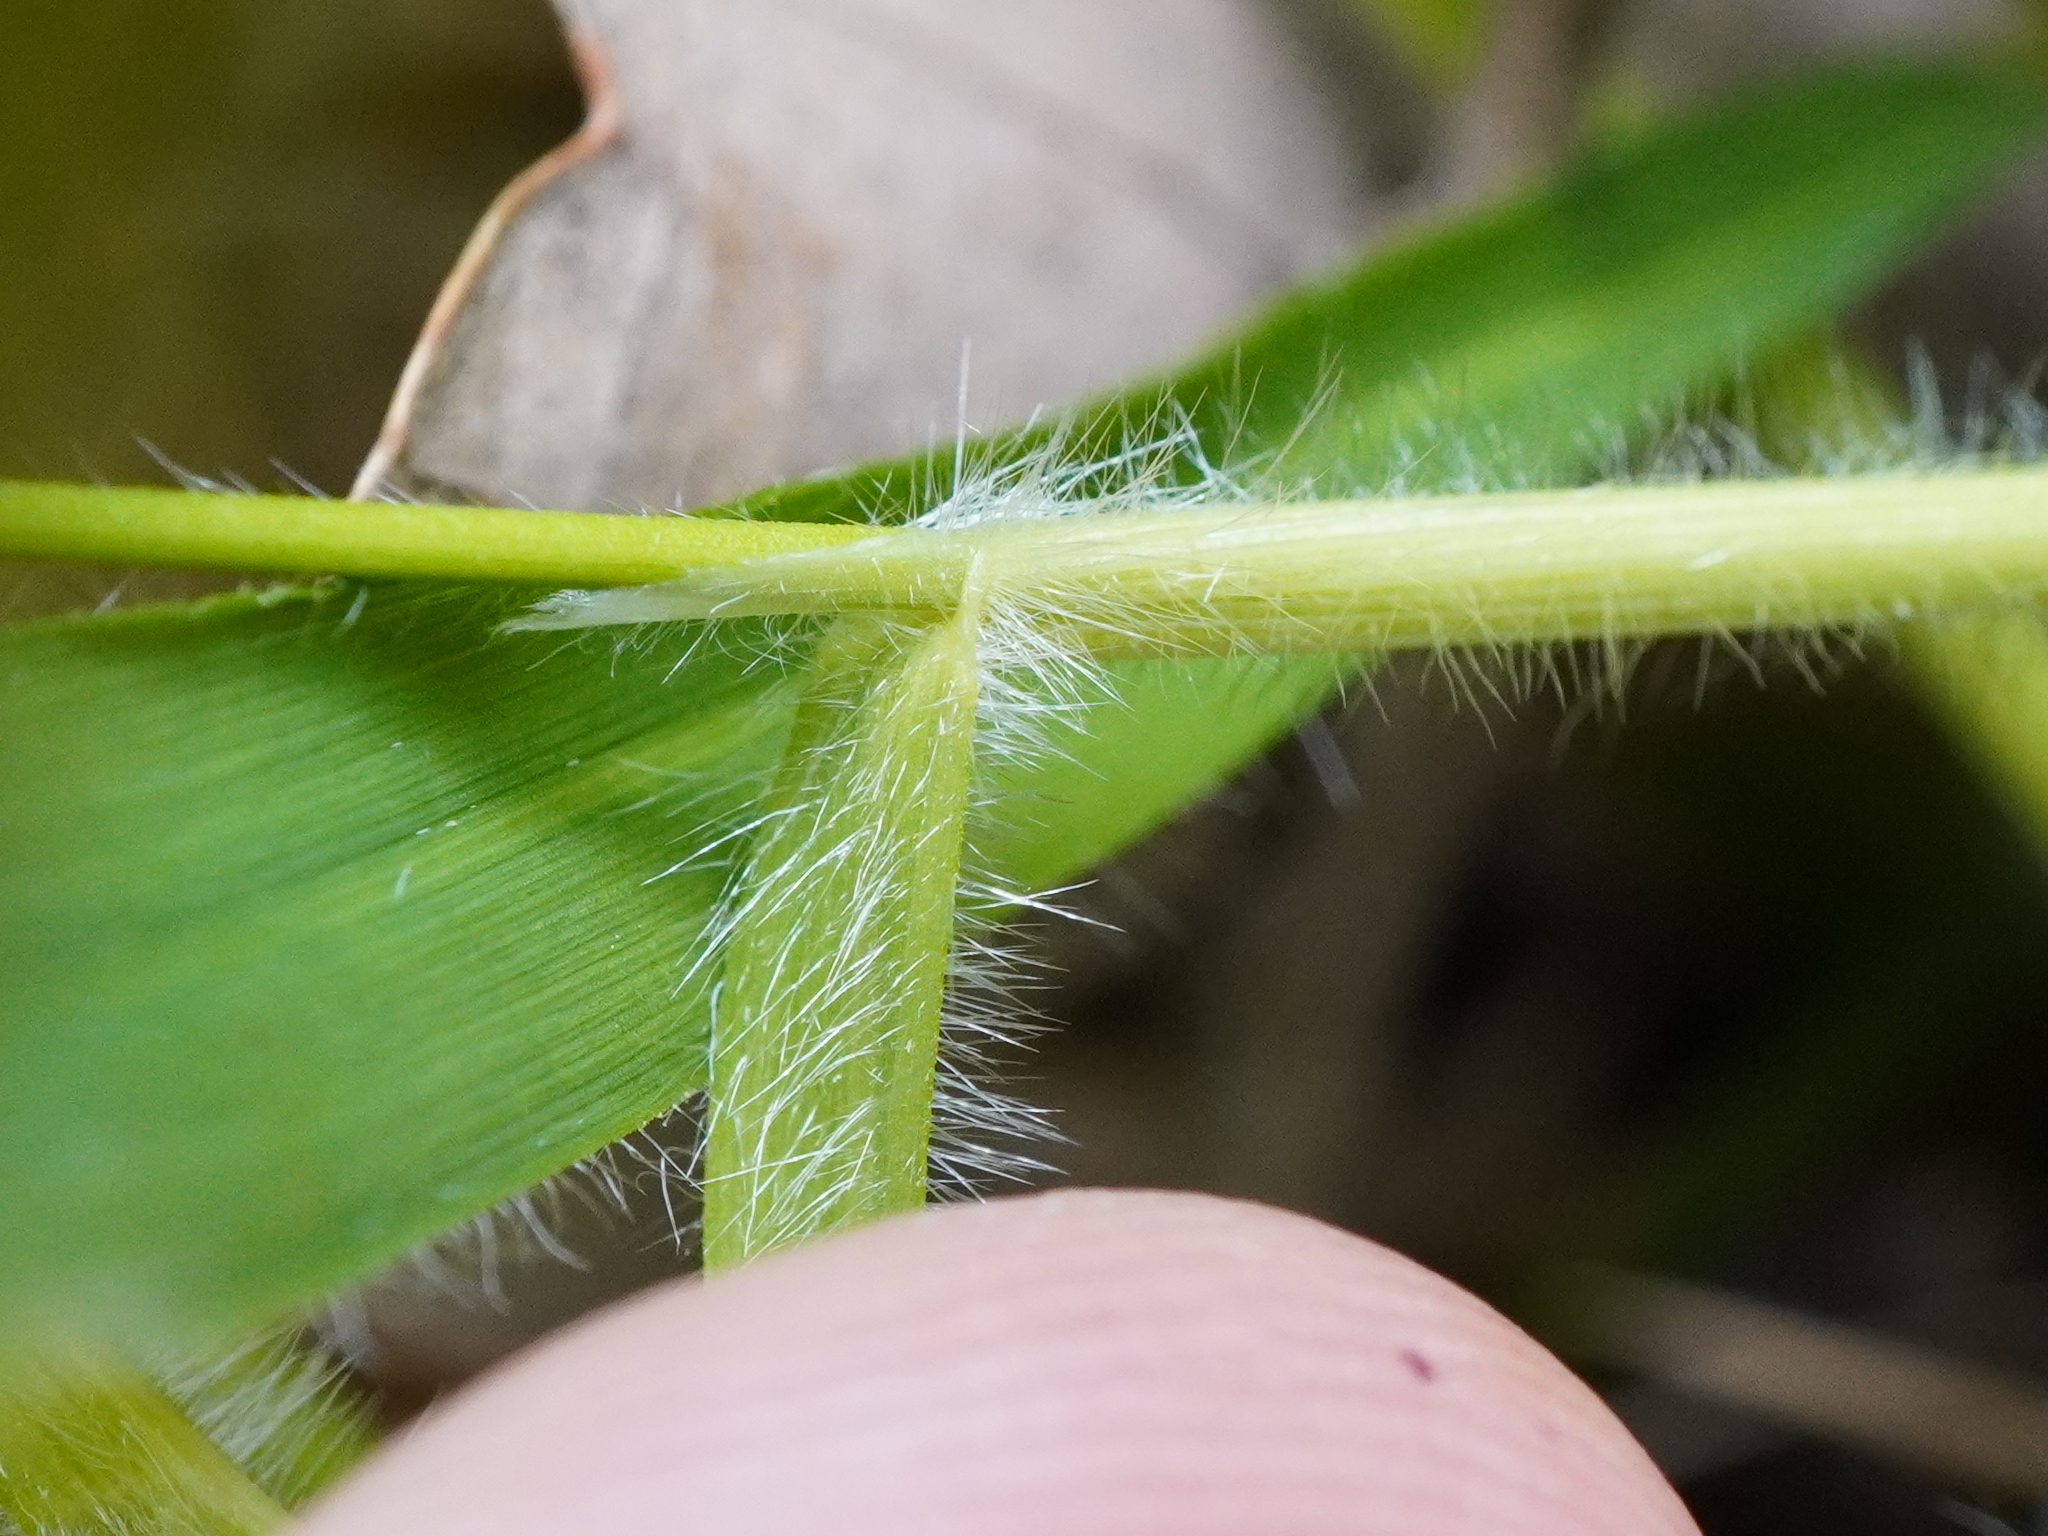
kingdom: Plantae
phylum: Tracheophyta
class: Liliopsida
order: Poales
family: Poaceae
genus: Brachypodium
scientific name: Brachypodium sylvaticum
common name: False-brome
